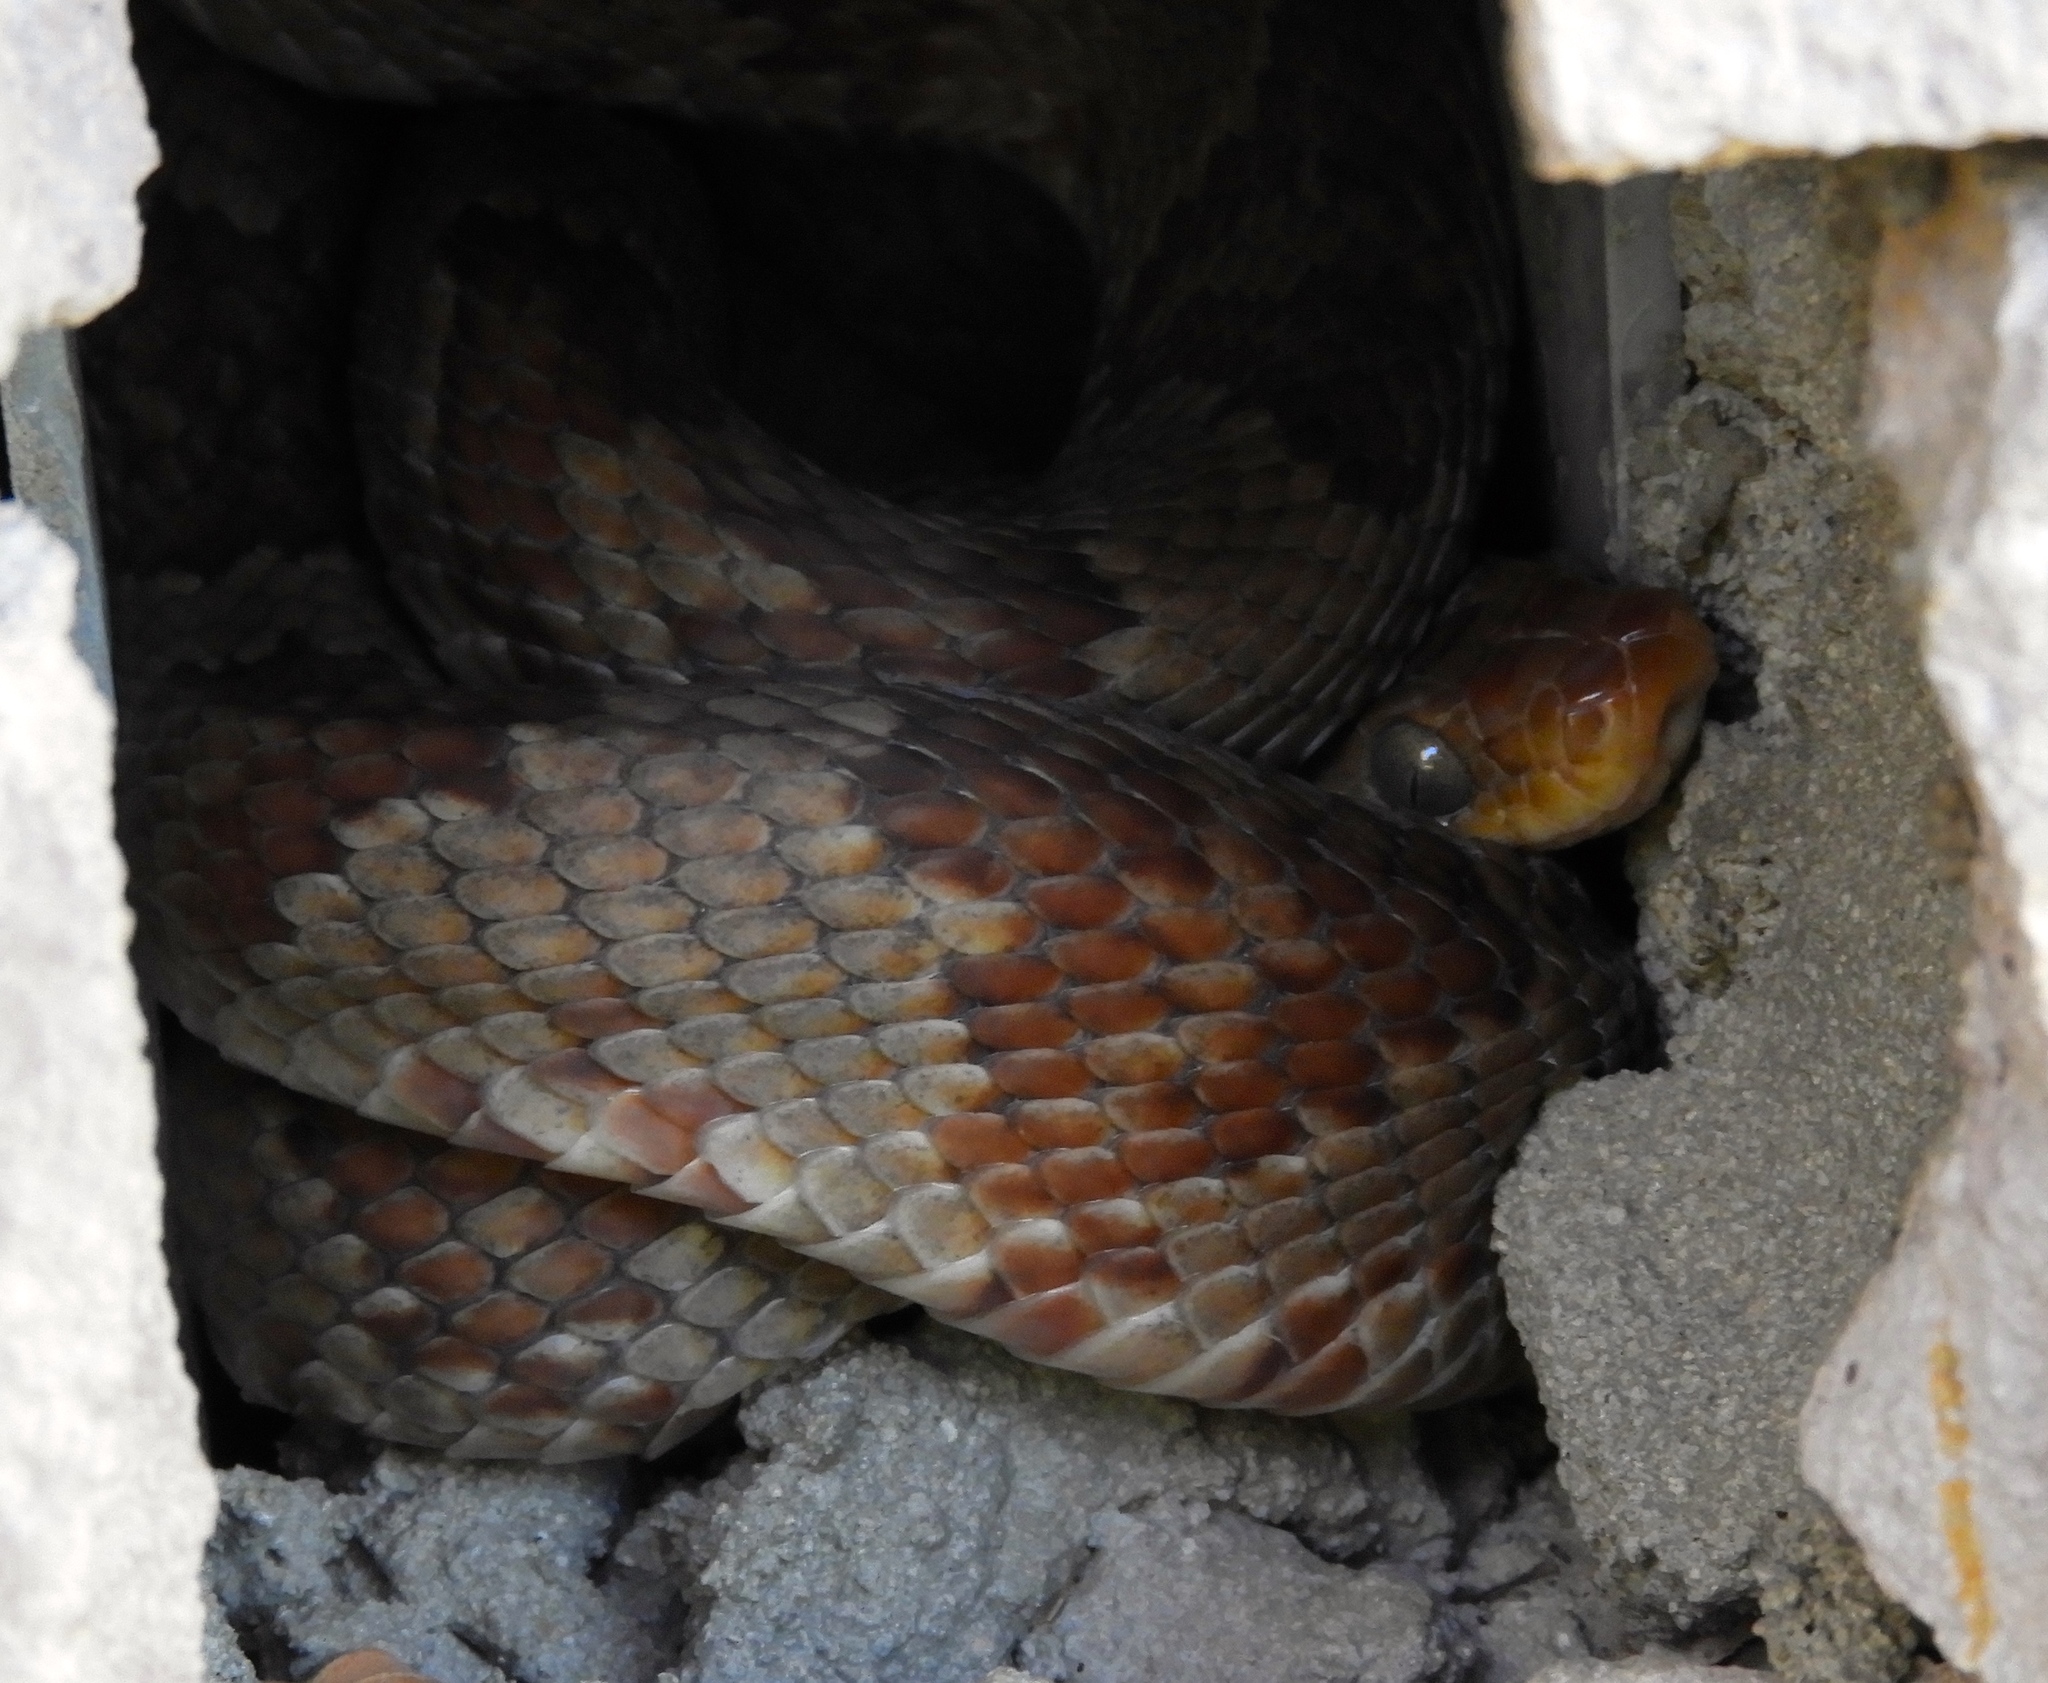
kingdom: Animalia
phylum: Chordata
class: Squamata
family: Colubridae
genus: Trimorphodon
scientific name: Trimorphodon paucimaculatus
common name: Sinaloan lyresnake
